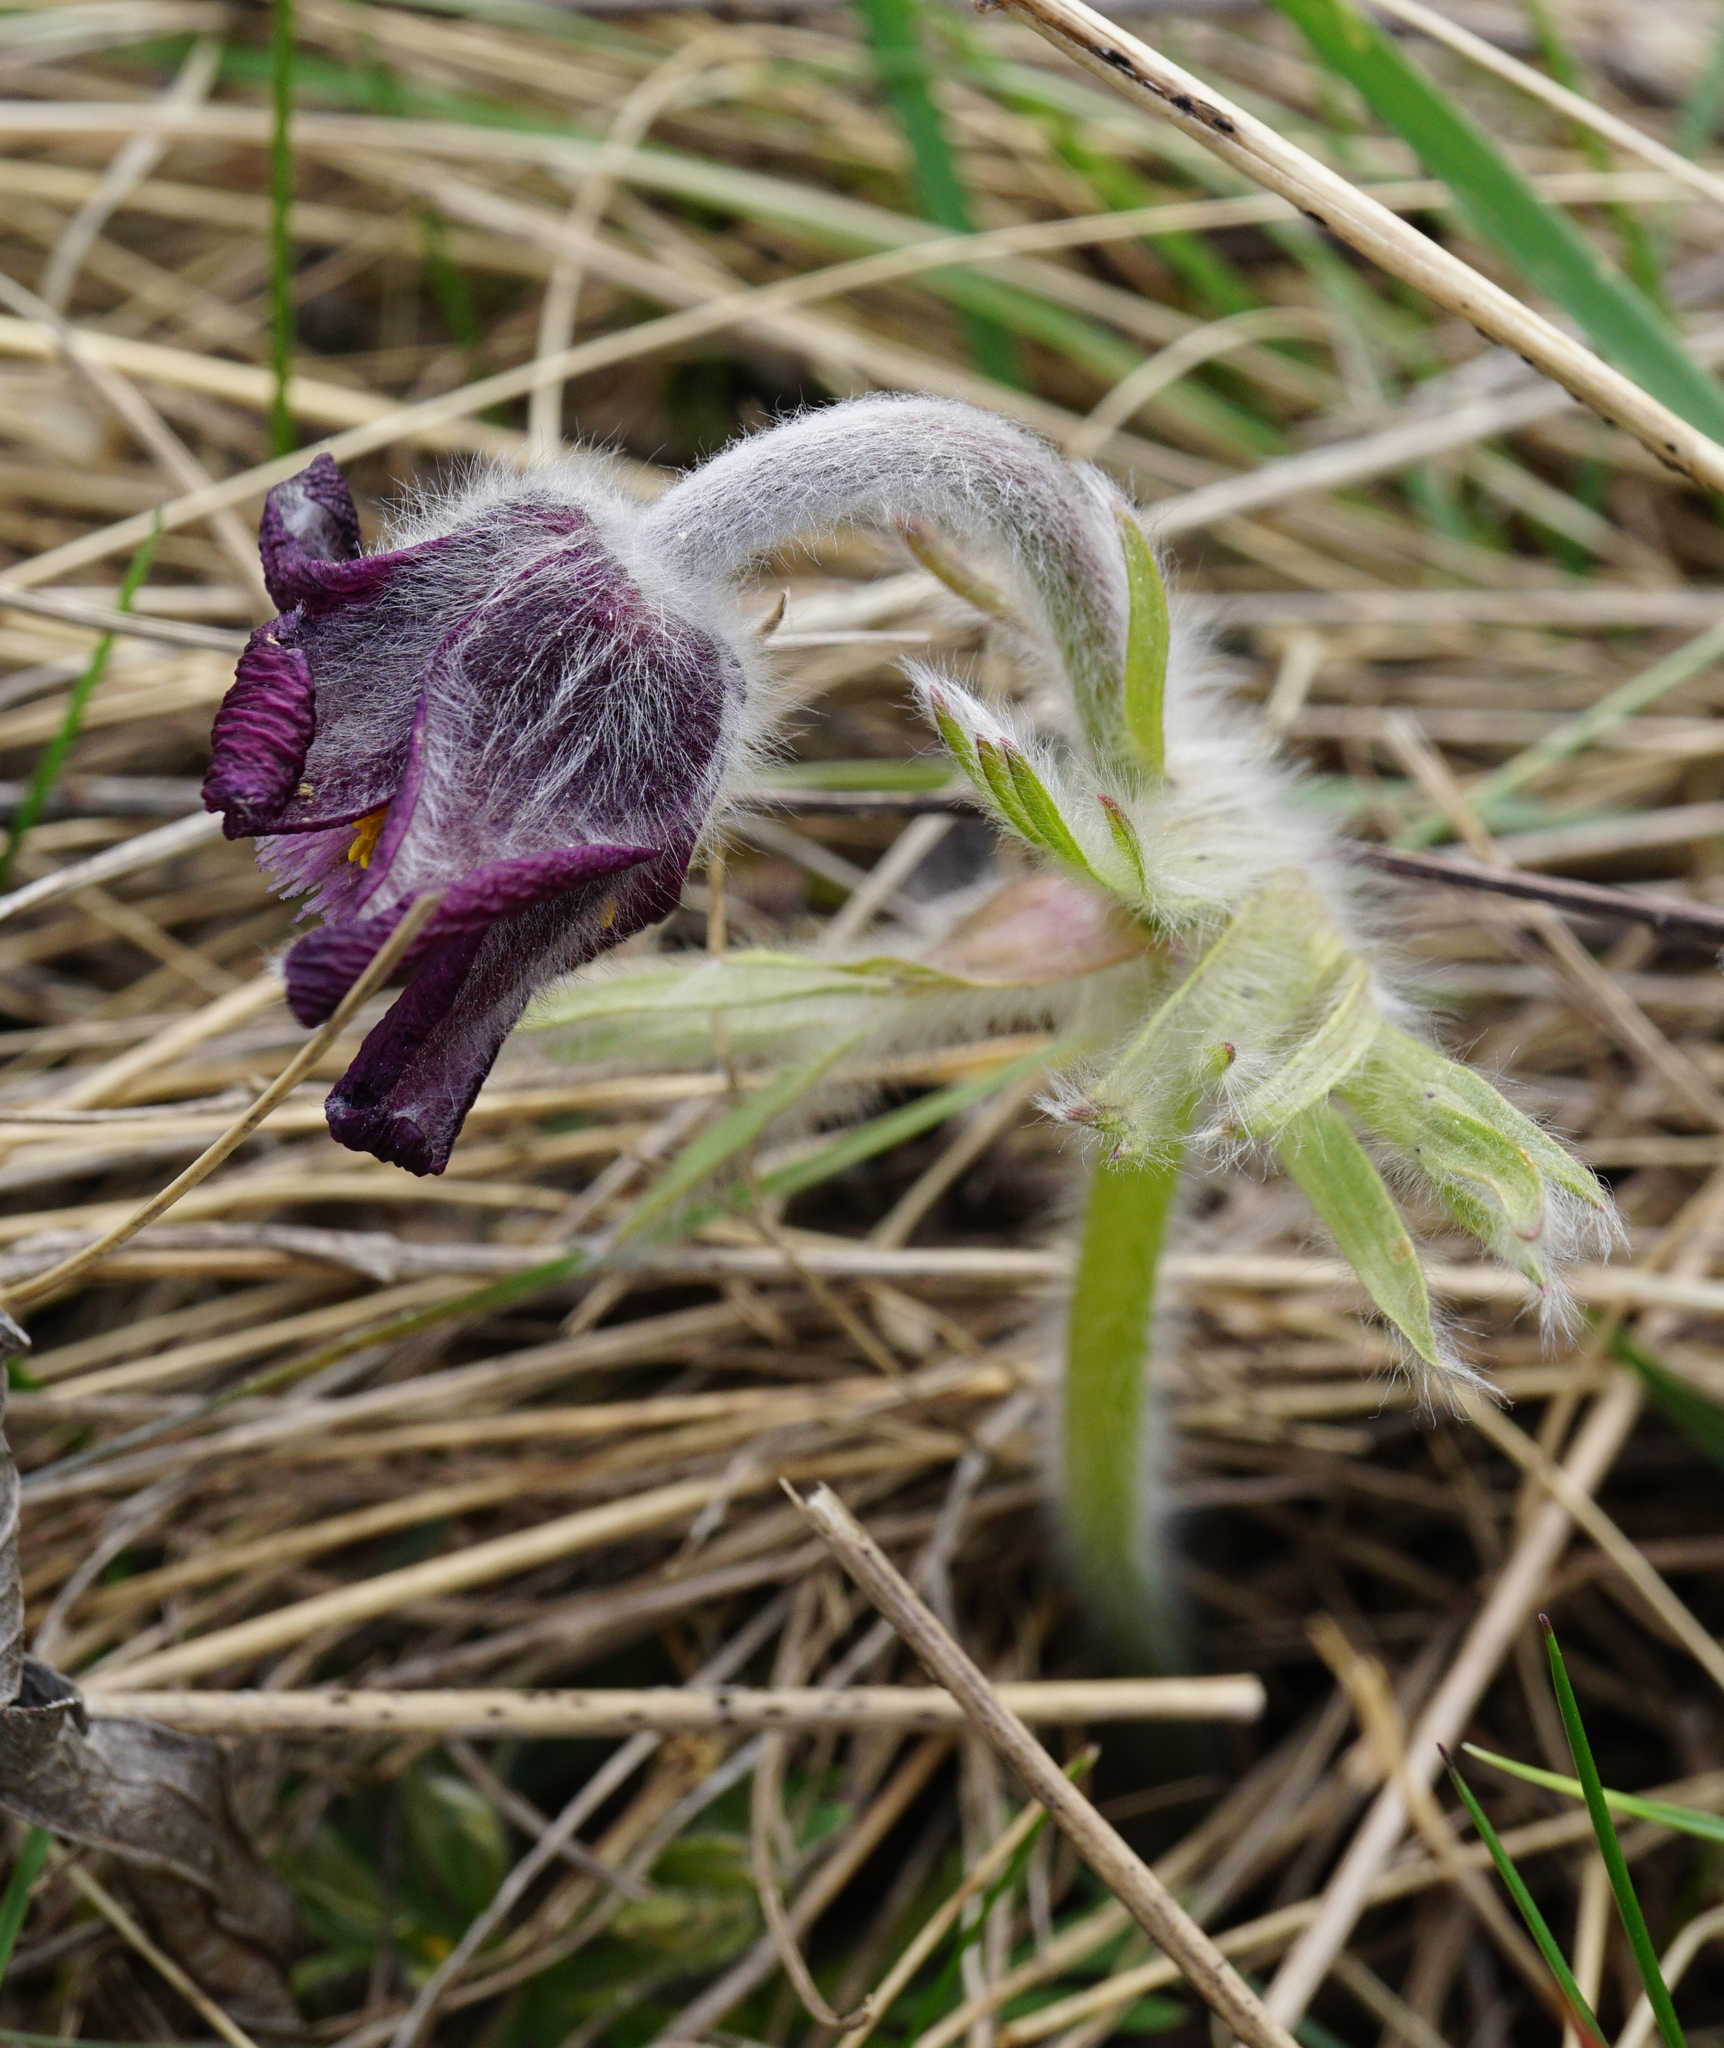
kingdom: Plantae
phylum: Tracheophyta
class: Magnoliopsida
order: Ranunculales
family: Ranunculaceae
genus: Pulsatilla
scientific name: Pulsatilla pratensis
